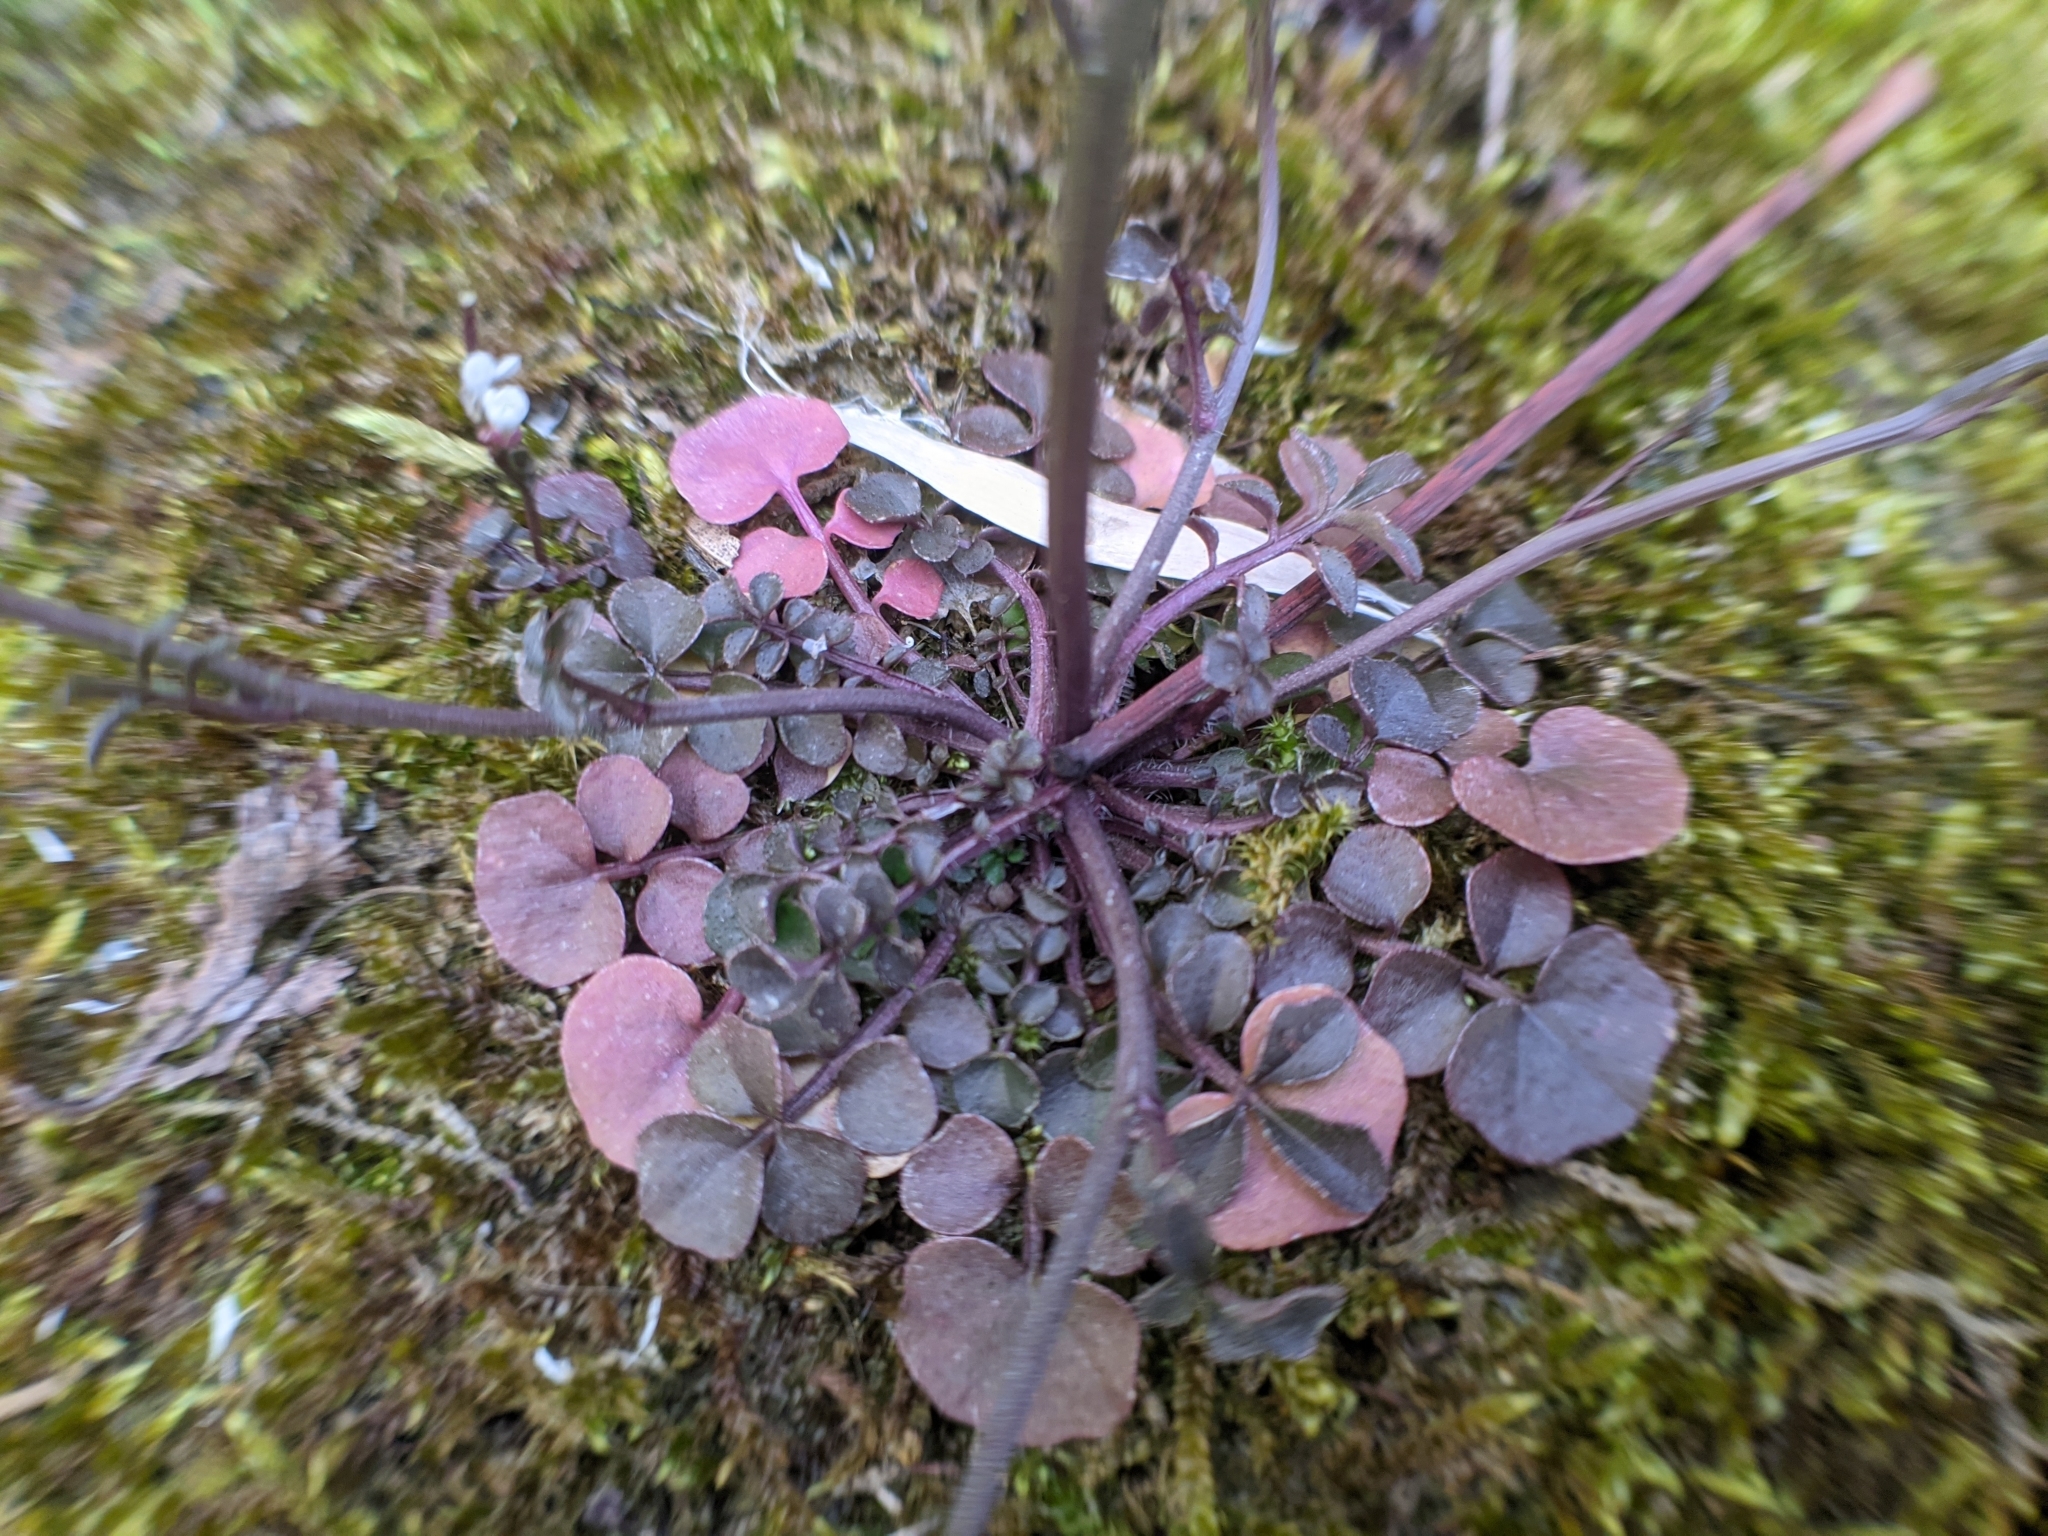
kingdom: Plantae
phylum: Tracheophyta
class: Magnoliopsida
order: Brassicales
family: Brassicaceae
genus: Cardamine
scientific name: Cardamine hirsuta
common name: Hairy bittercress
